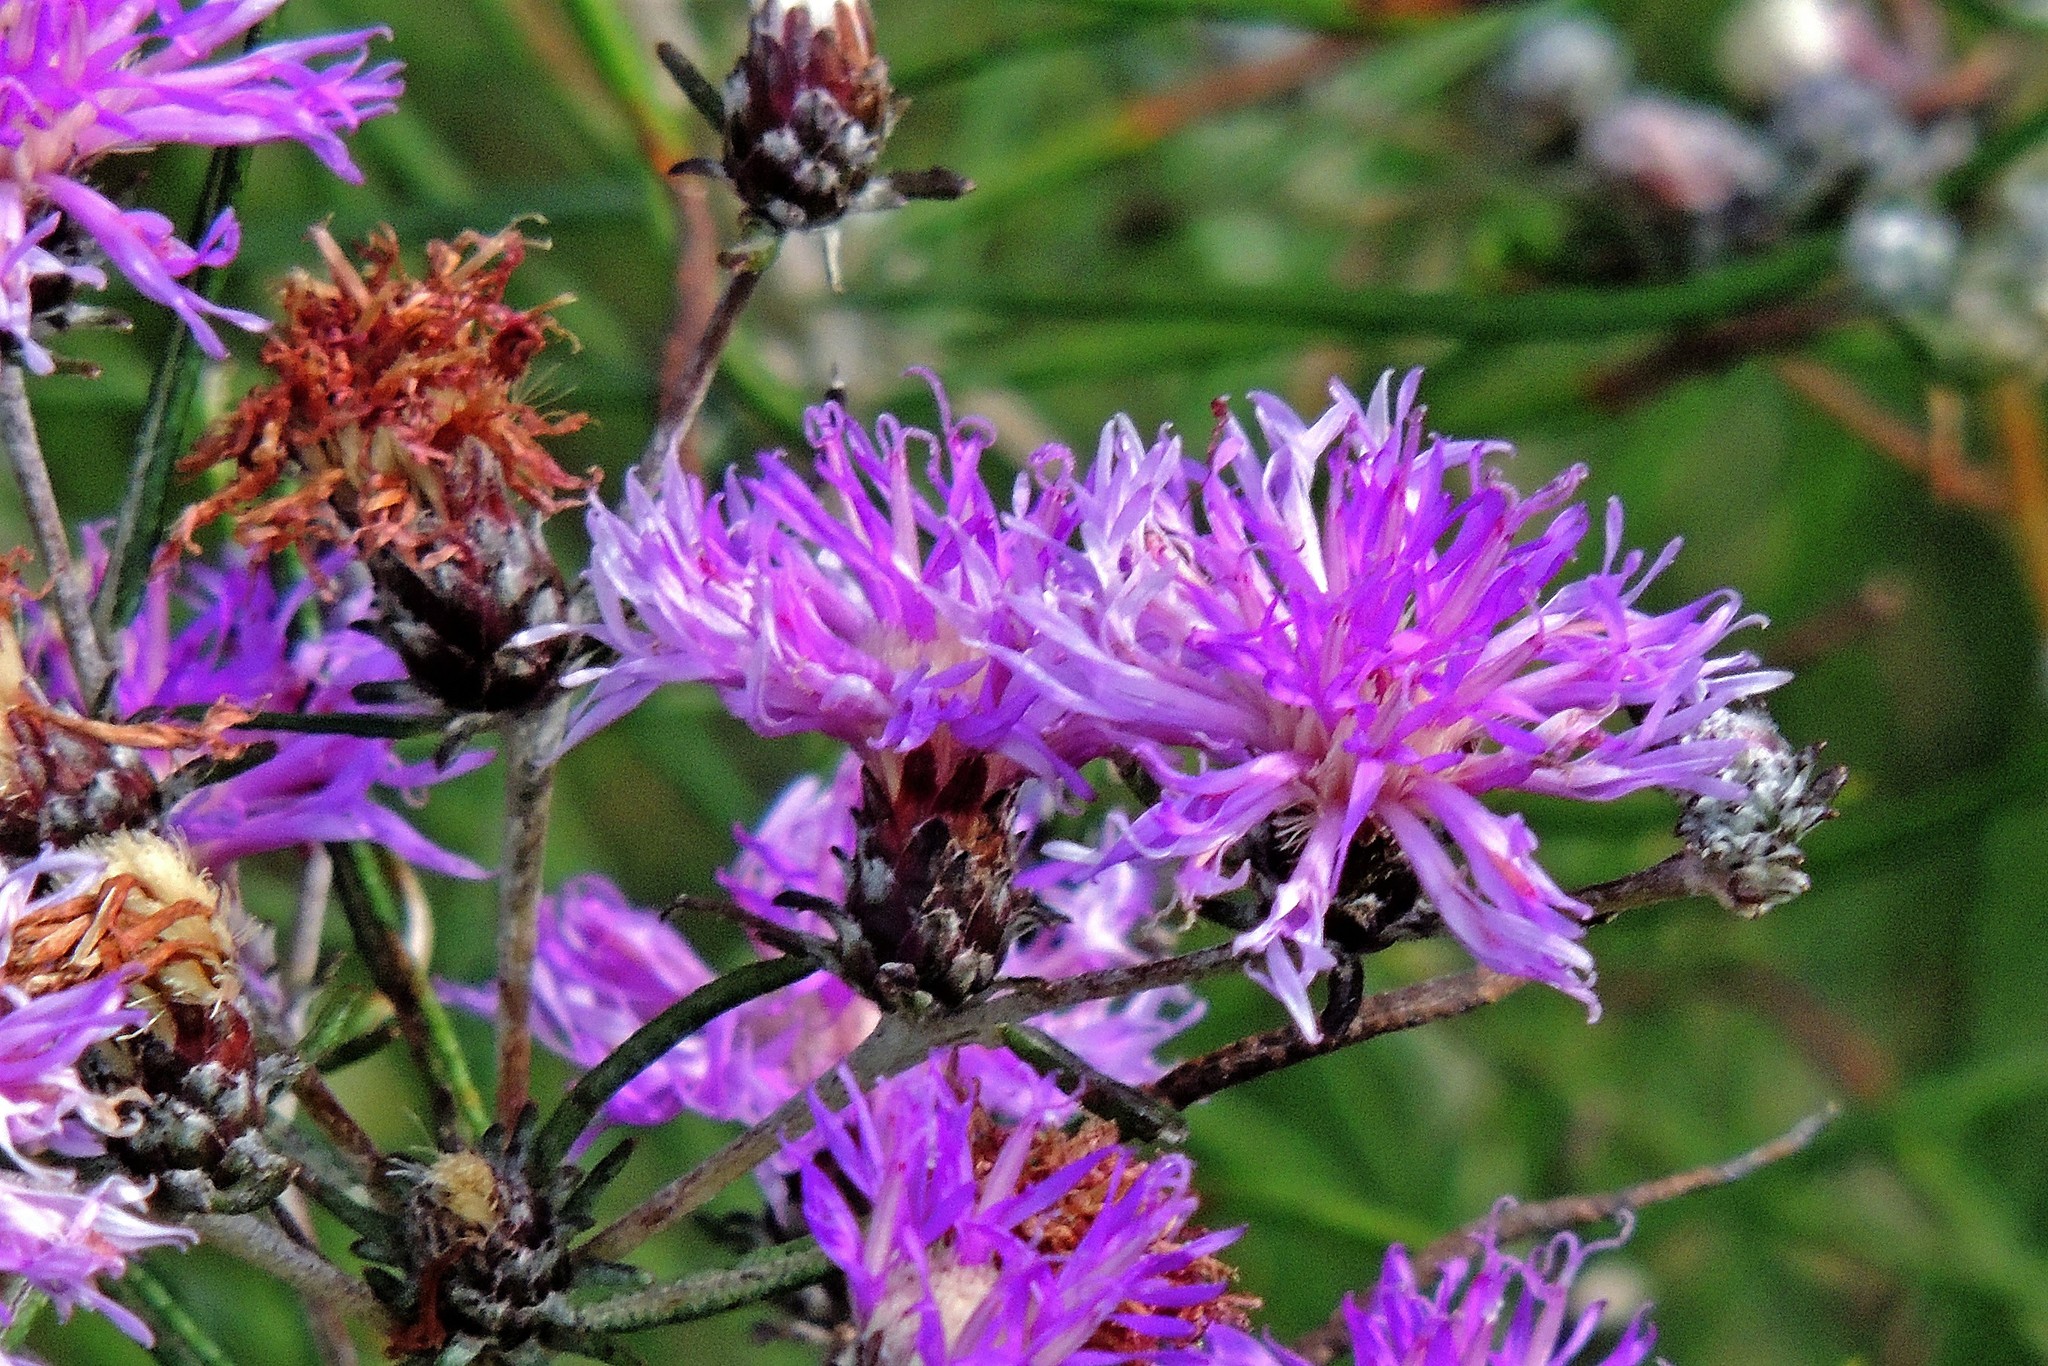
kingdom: Plantae
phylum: Tracheophyta
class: Magnoliopsida
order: Asterales
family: Asteraceae
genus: Lessingianthus
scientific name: Lessingianthus plantaginodes
